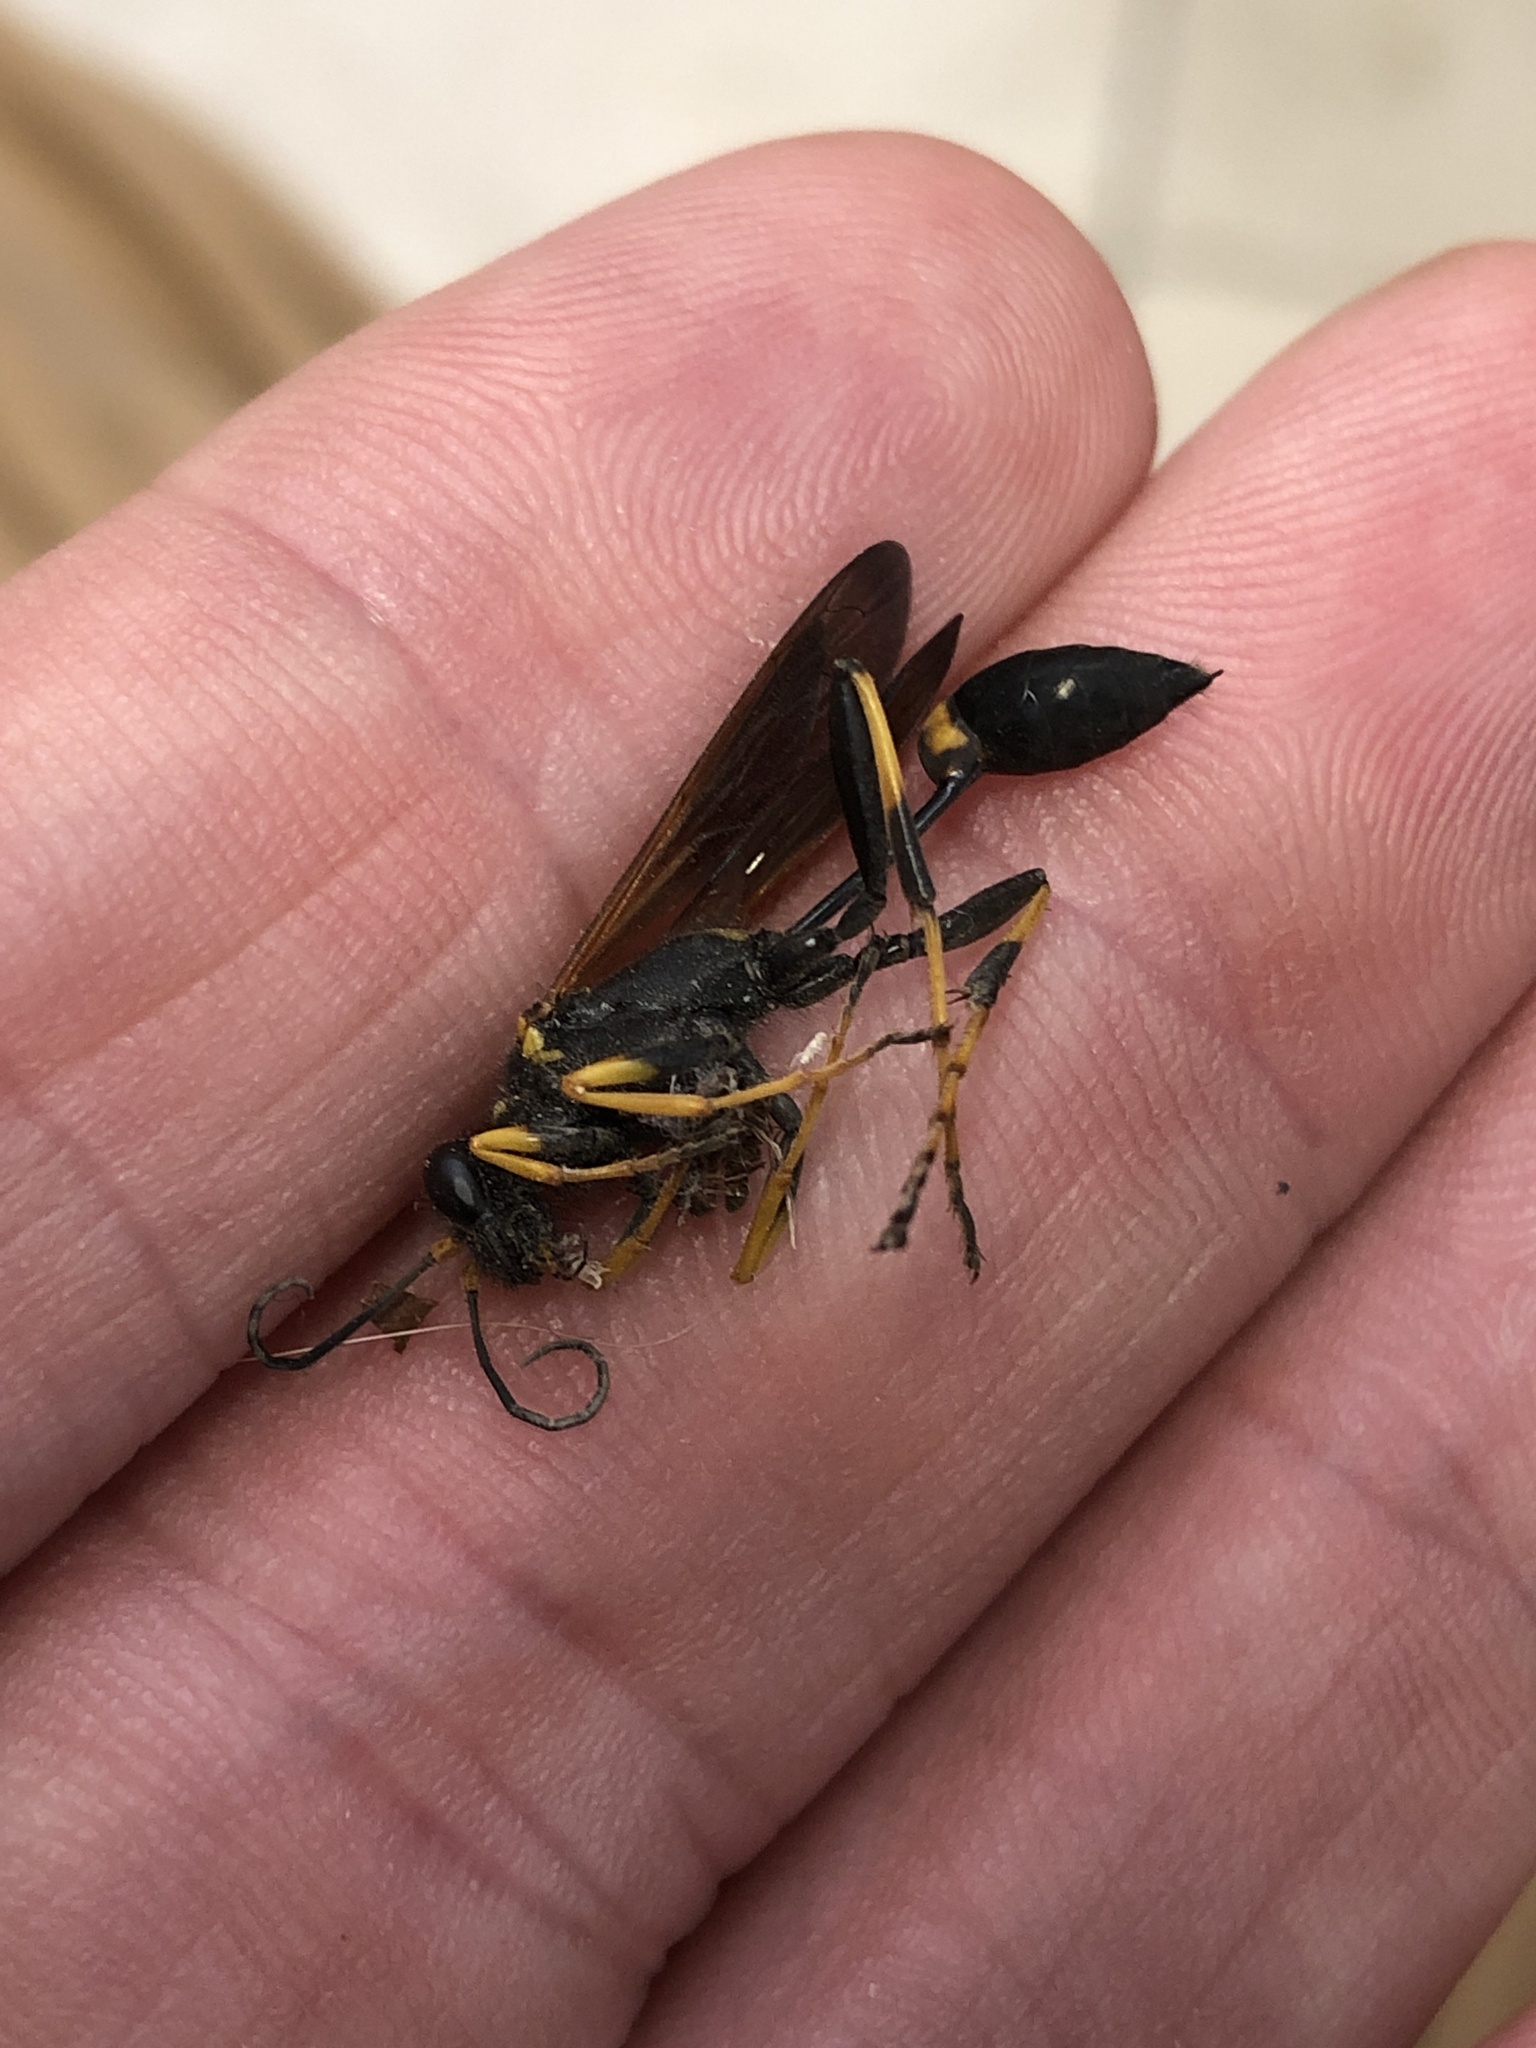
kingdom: Animalia
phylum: Arthropoda
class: Insecta
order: Hymenoptera
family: Sphecidae
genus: Sceliphron
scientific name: Sceliphron caementarium
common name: Mud dauber
